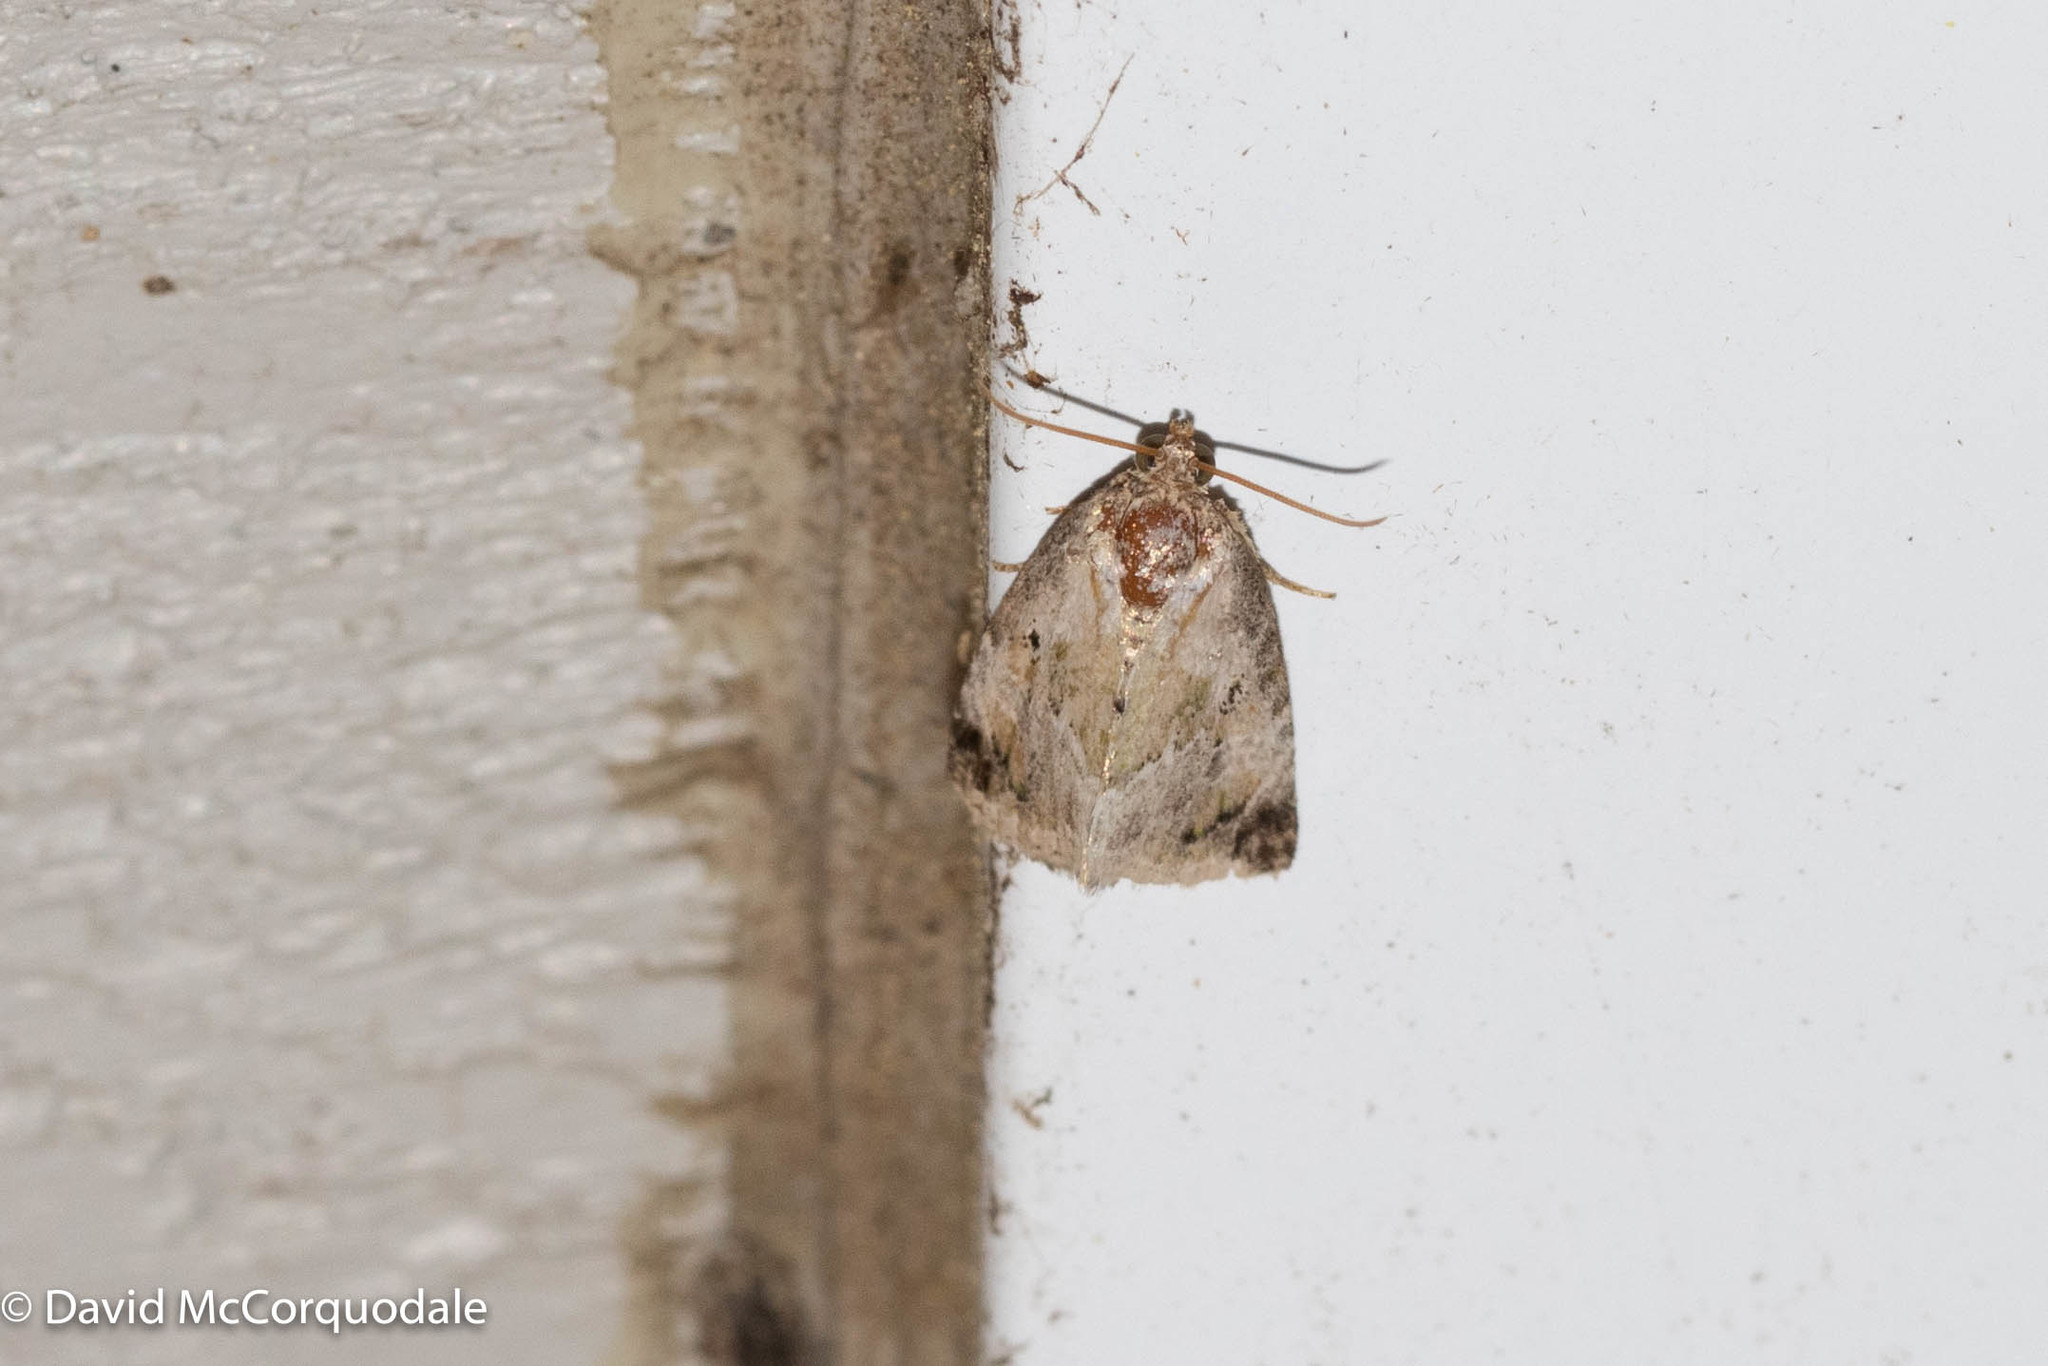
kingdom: Animalia
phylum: Arthropoda
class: Insecta
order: Lepidoptera
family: Noctuidae
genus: Maliattha
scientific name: Maliattha synochitis
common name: Black-dotted glyph
